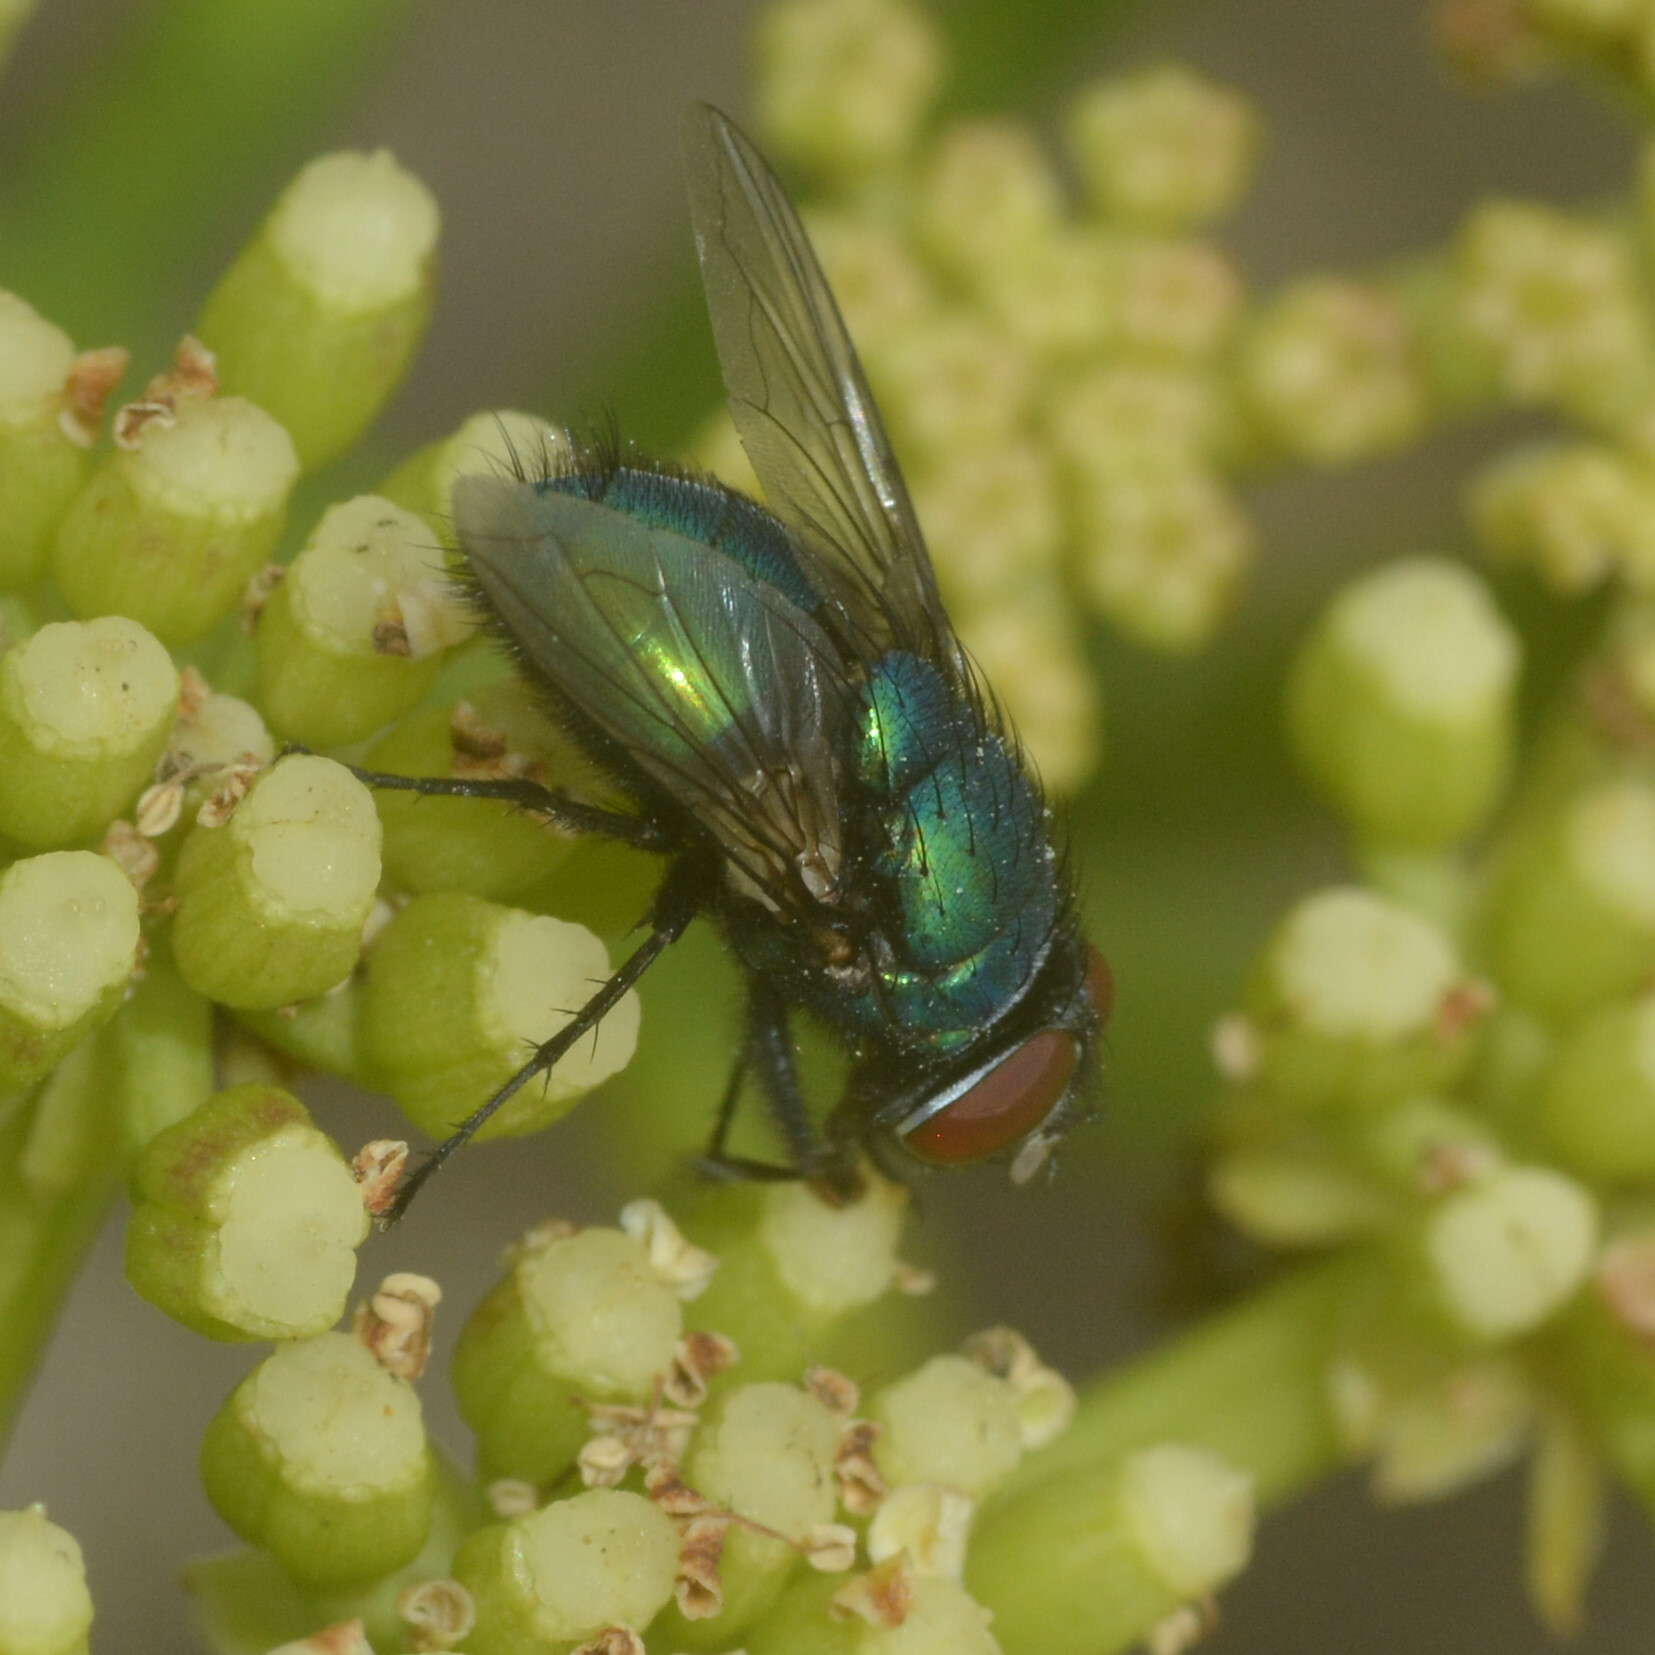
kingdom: Animalia
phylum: Arthropoda
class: Insecta
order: Diptera
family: Calliphoridae
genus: Lucilia
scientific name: Lucilia sericata
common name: Blow fly
